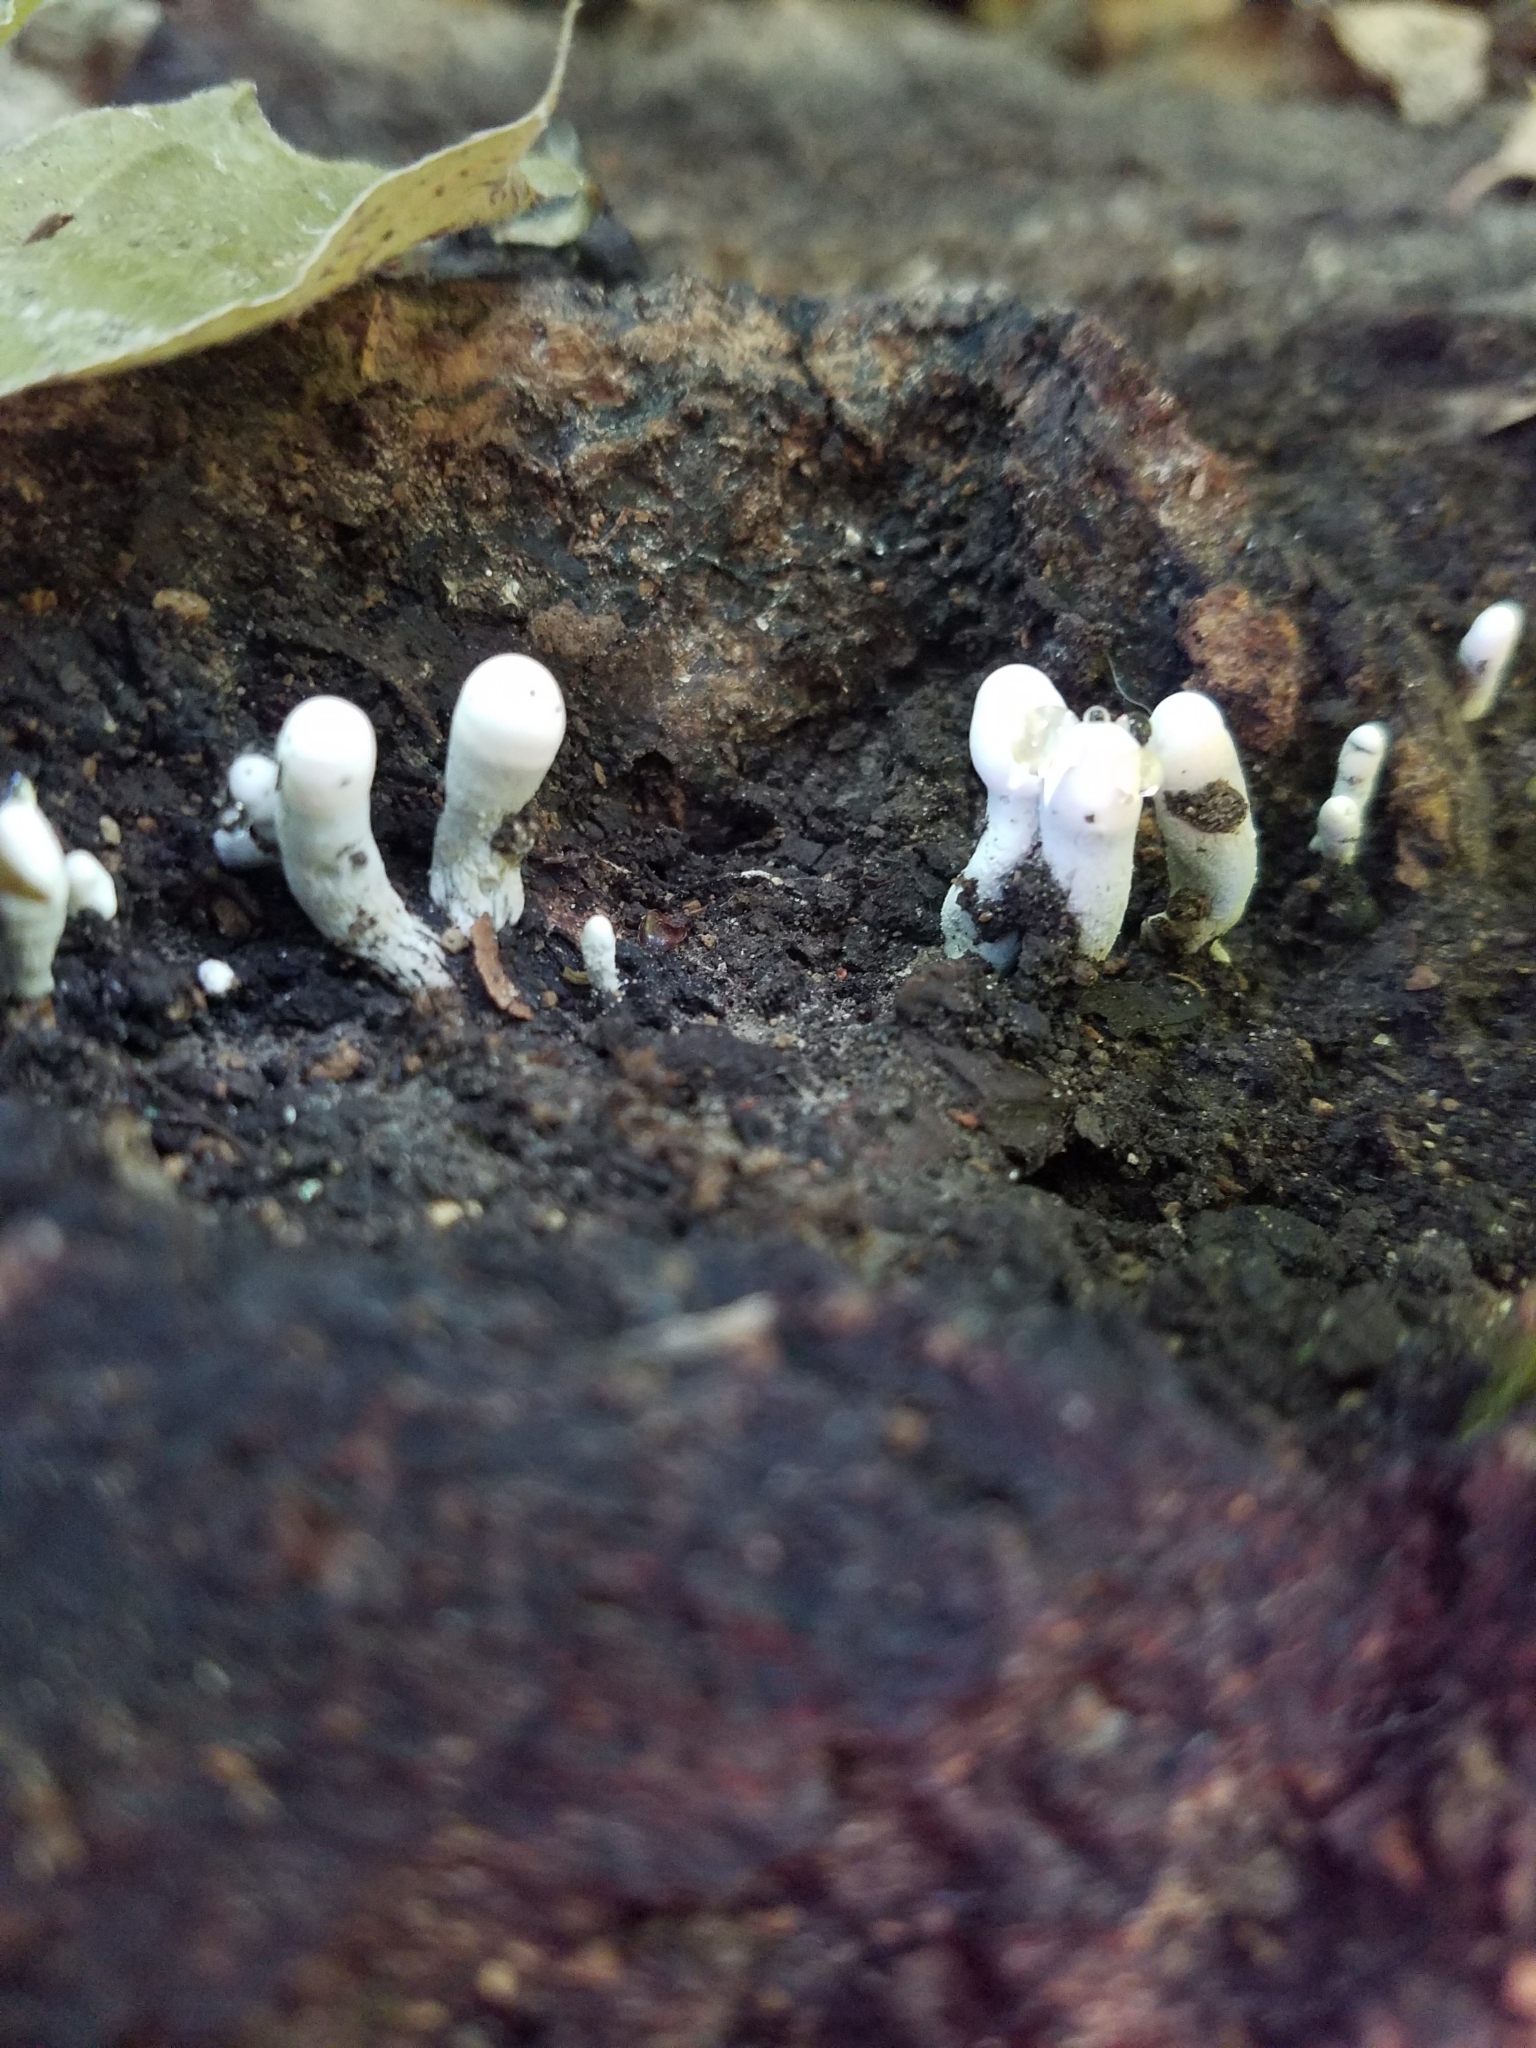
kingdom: Fungi
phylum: Ascomycota
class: Sordariomycetes
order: Xylariales
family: Xylariaceae
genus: Xylaria
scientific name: Xylaria polymorpha
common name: Dead man's fingers
